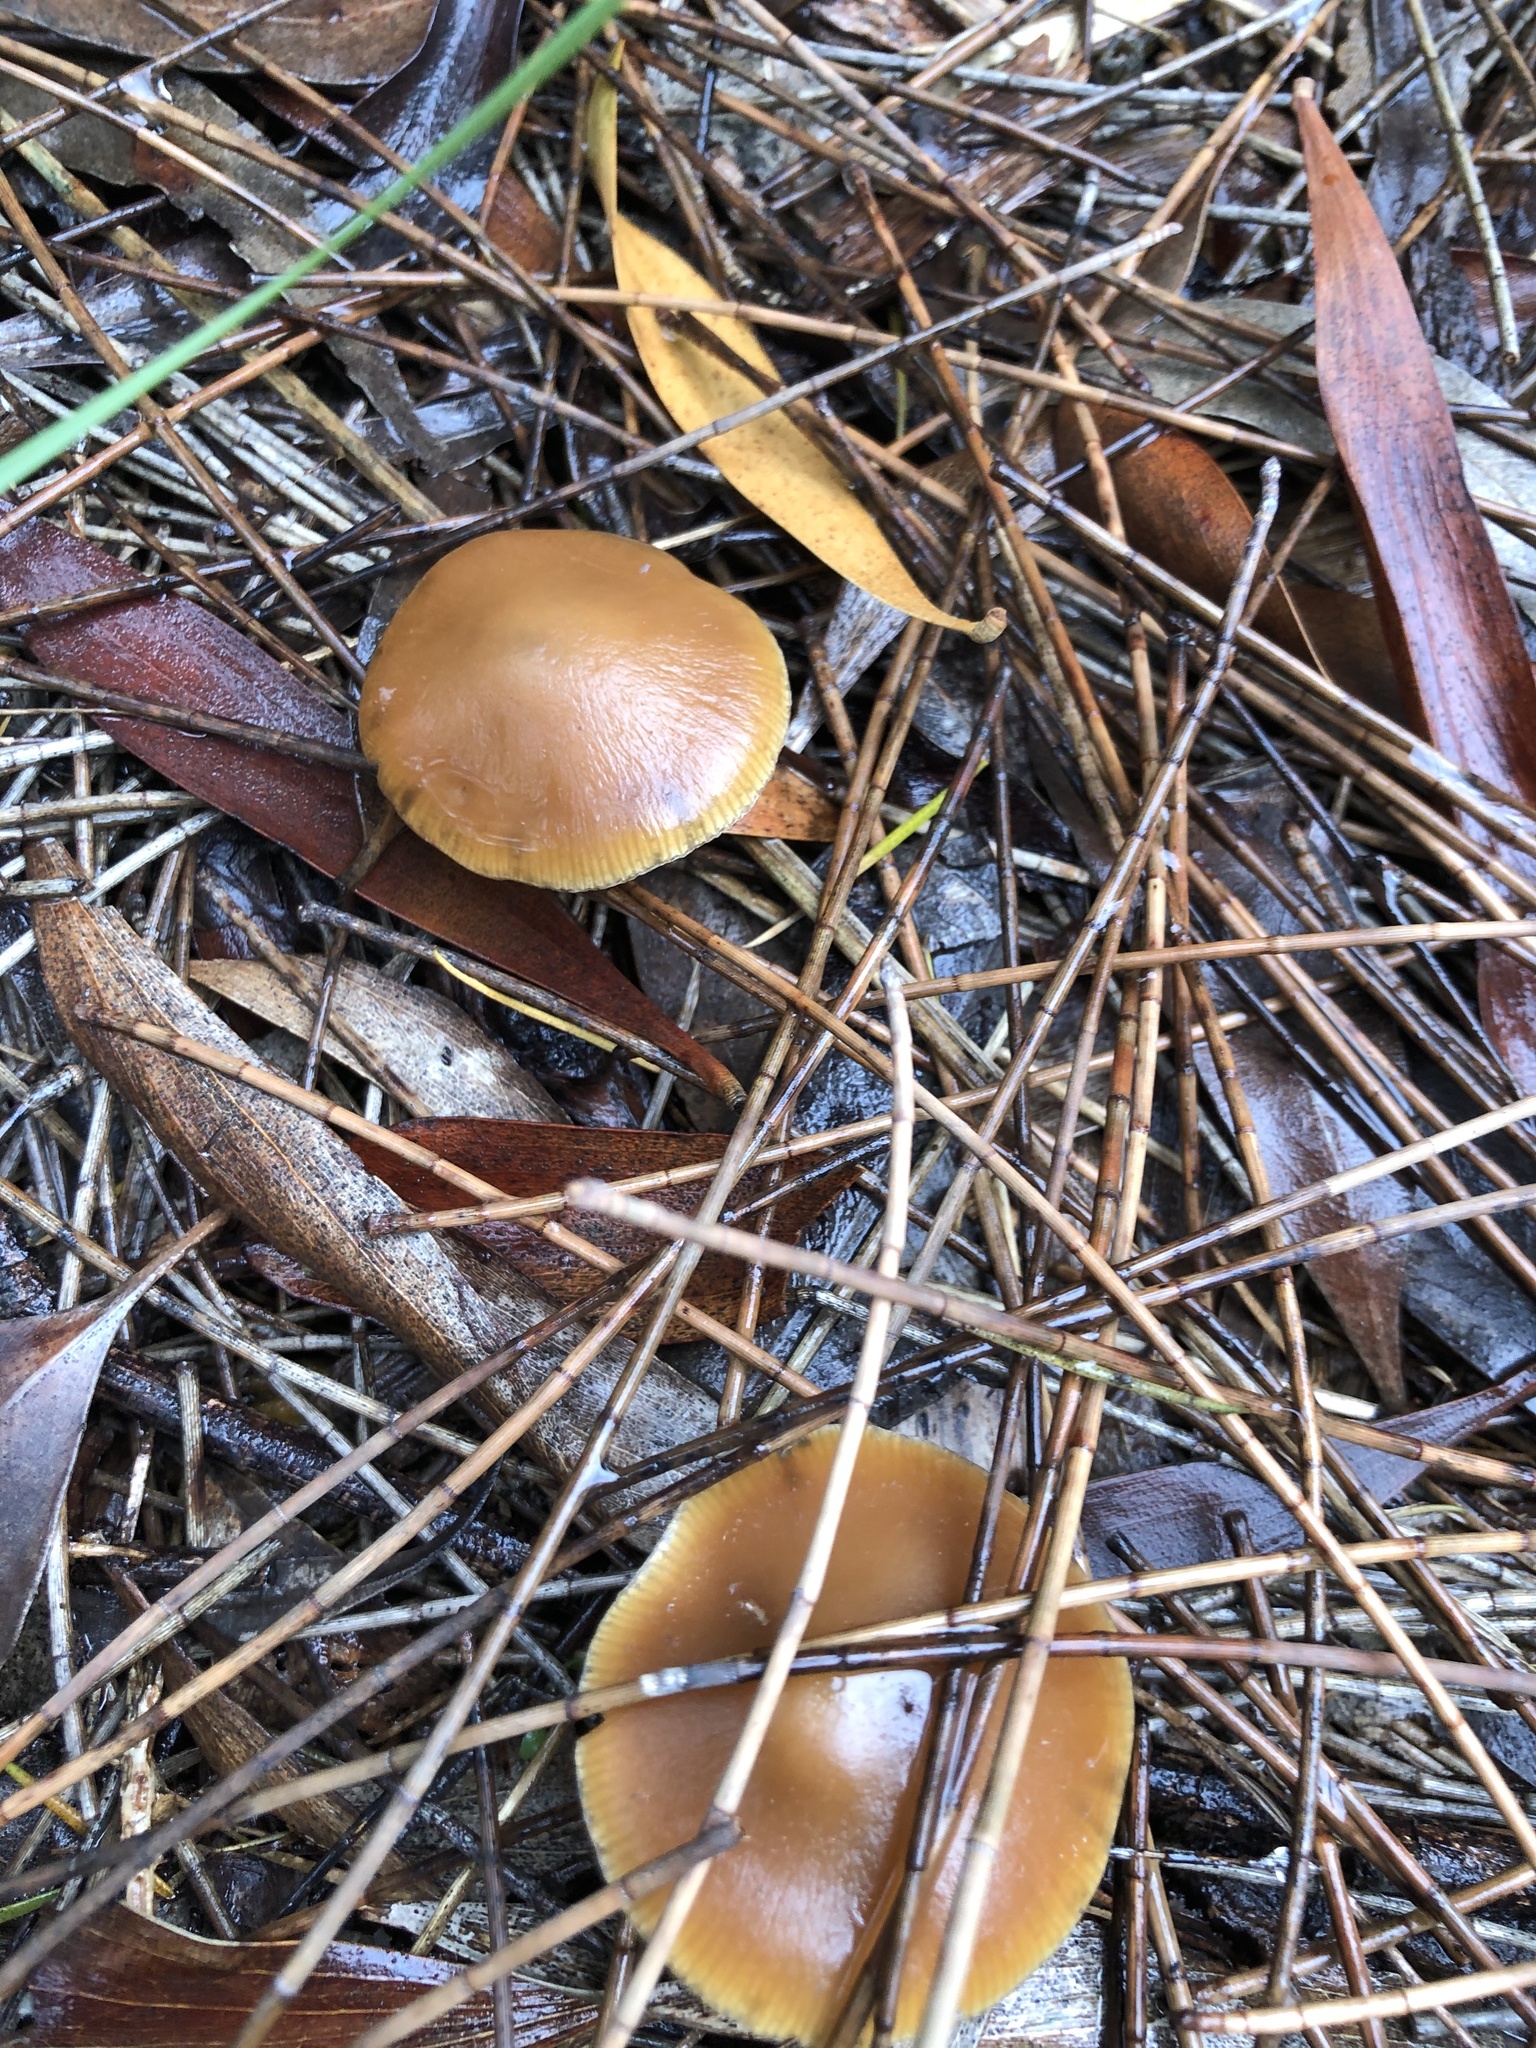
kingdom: Fungi
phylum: Basidiomycota
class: Agaricomycetes
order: Agaricales
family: Hymenogastraceae
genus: Psilocybe
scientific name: Psilocybe subaeruginosa
